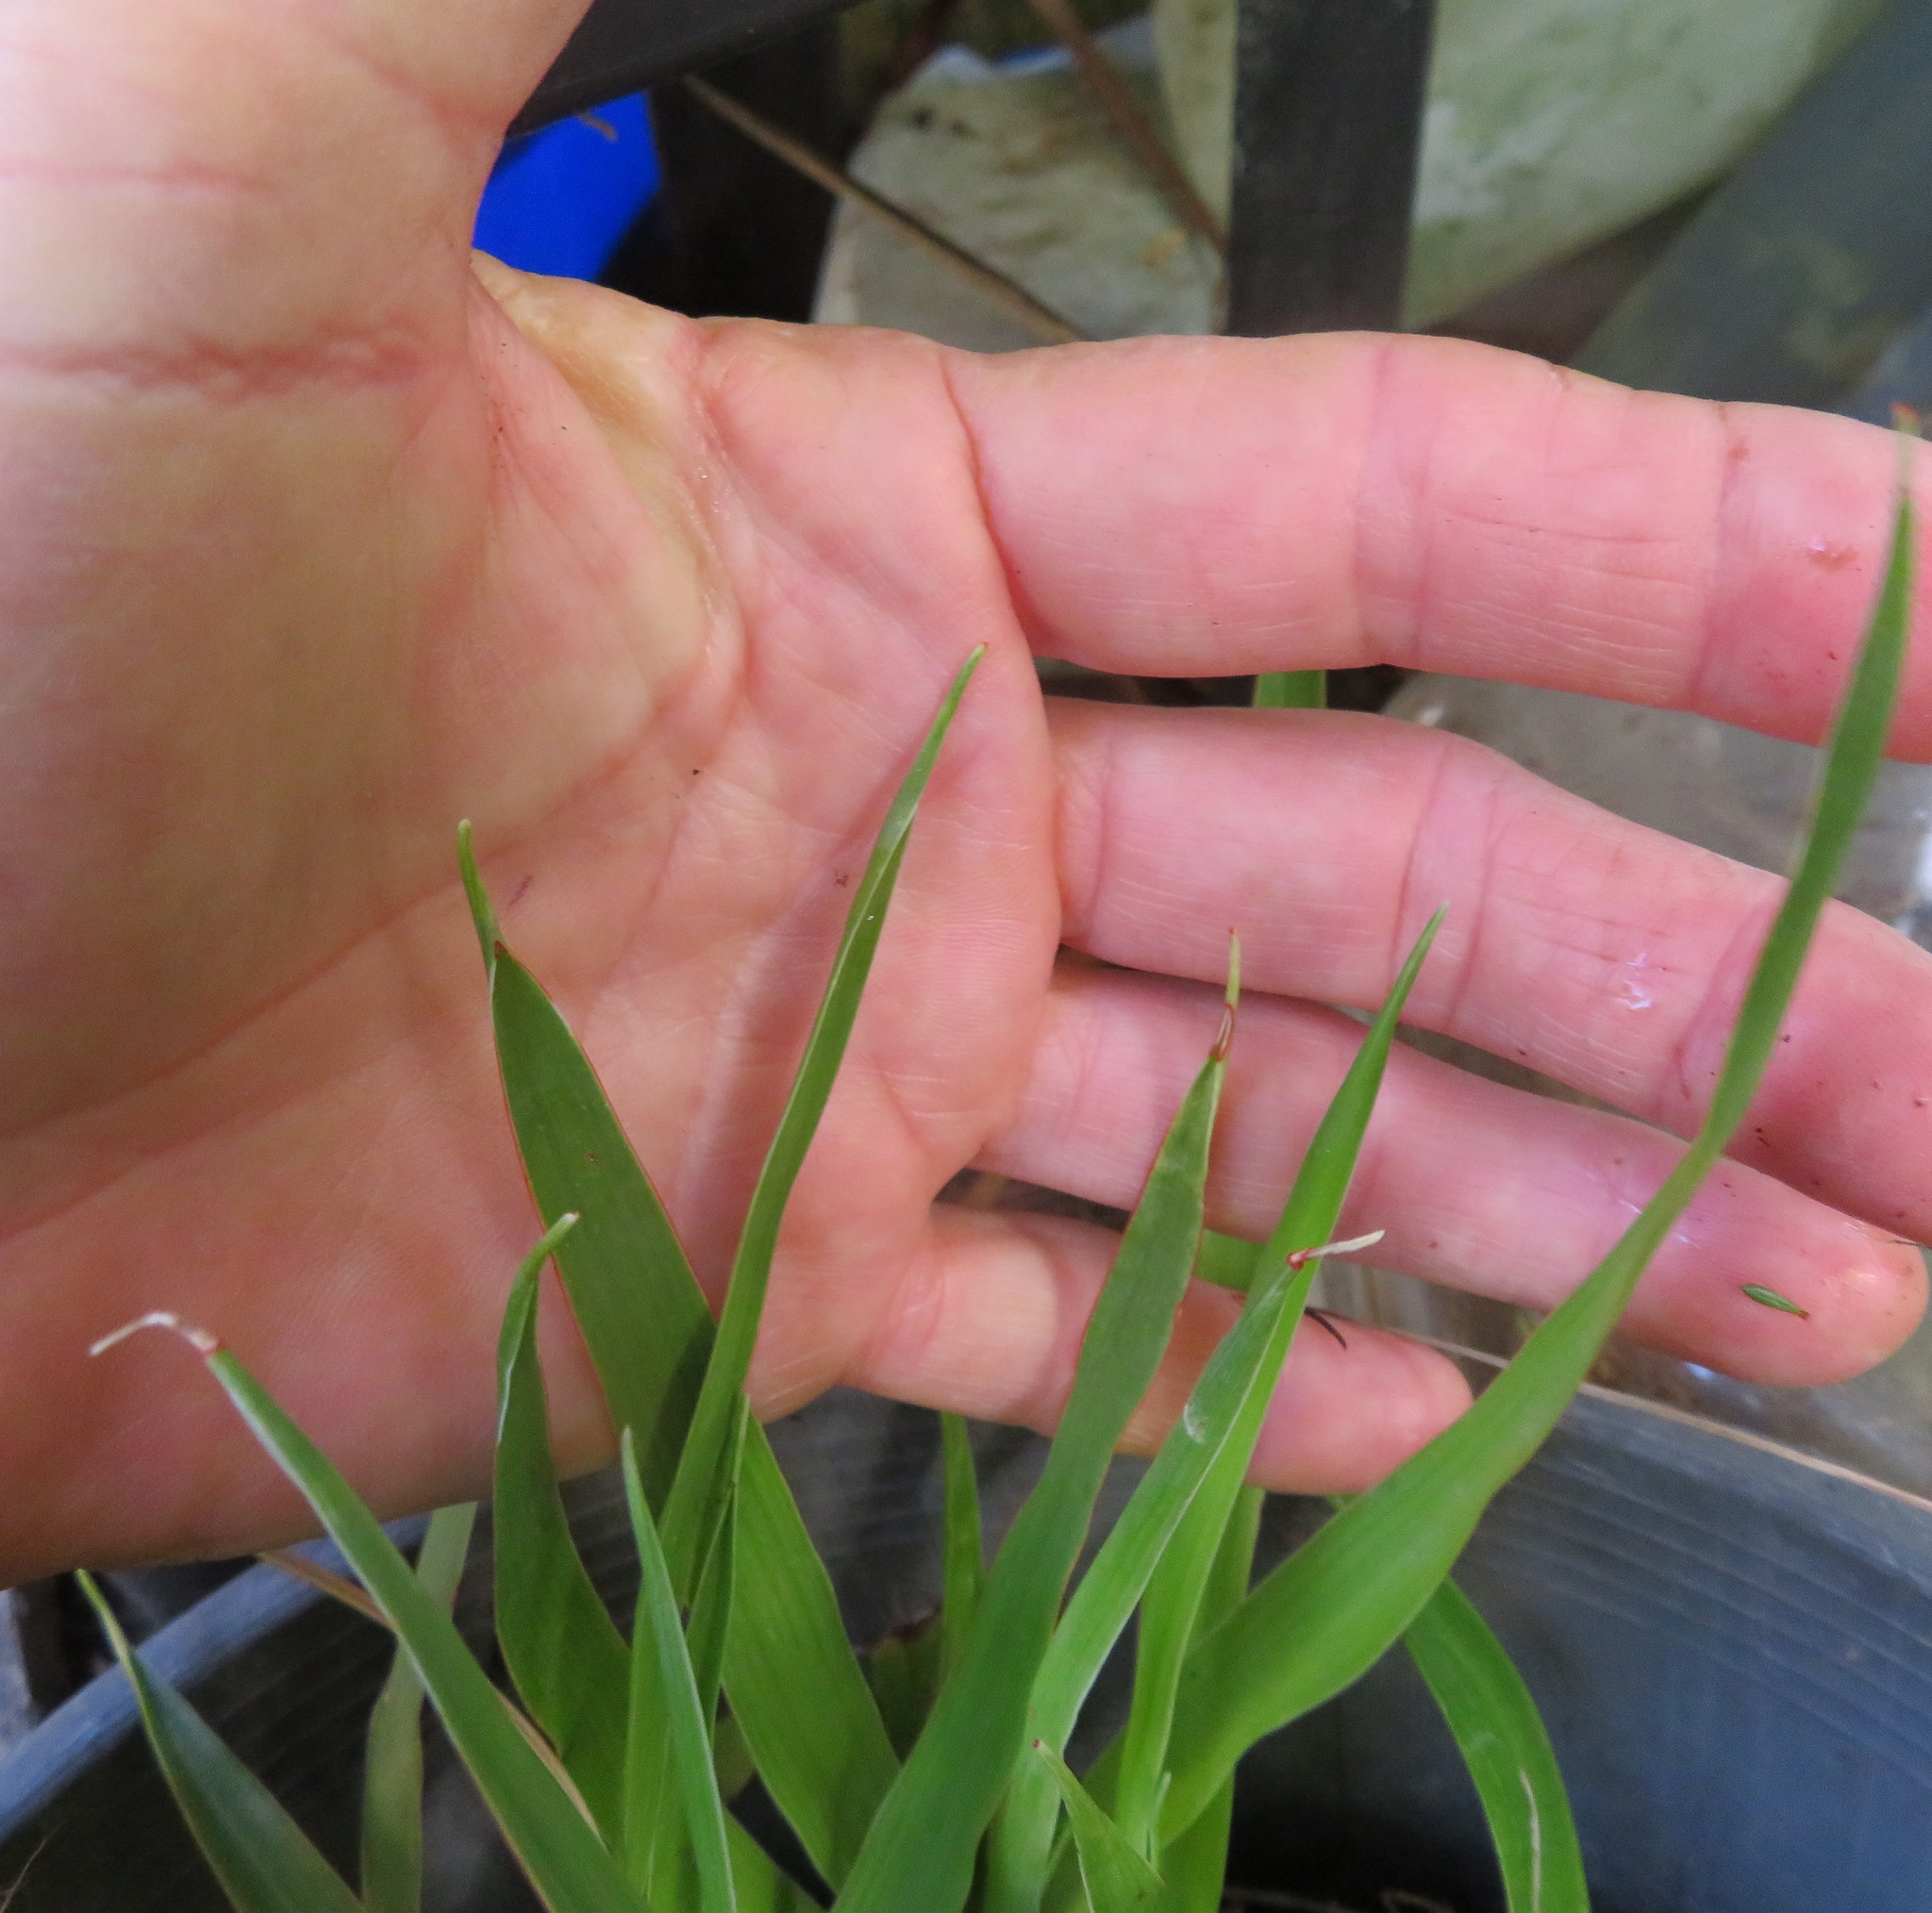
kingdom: Plantae
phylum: Tracheophyta
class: Liliopsida
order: Asparagales
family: Asparagaceae
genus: Dracaena
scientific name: Dracaena draco
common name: Canary island dragon tree
